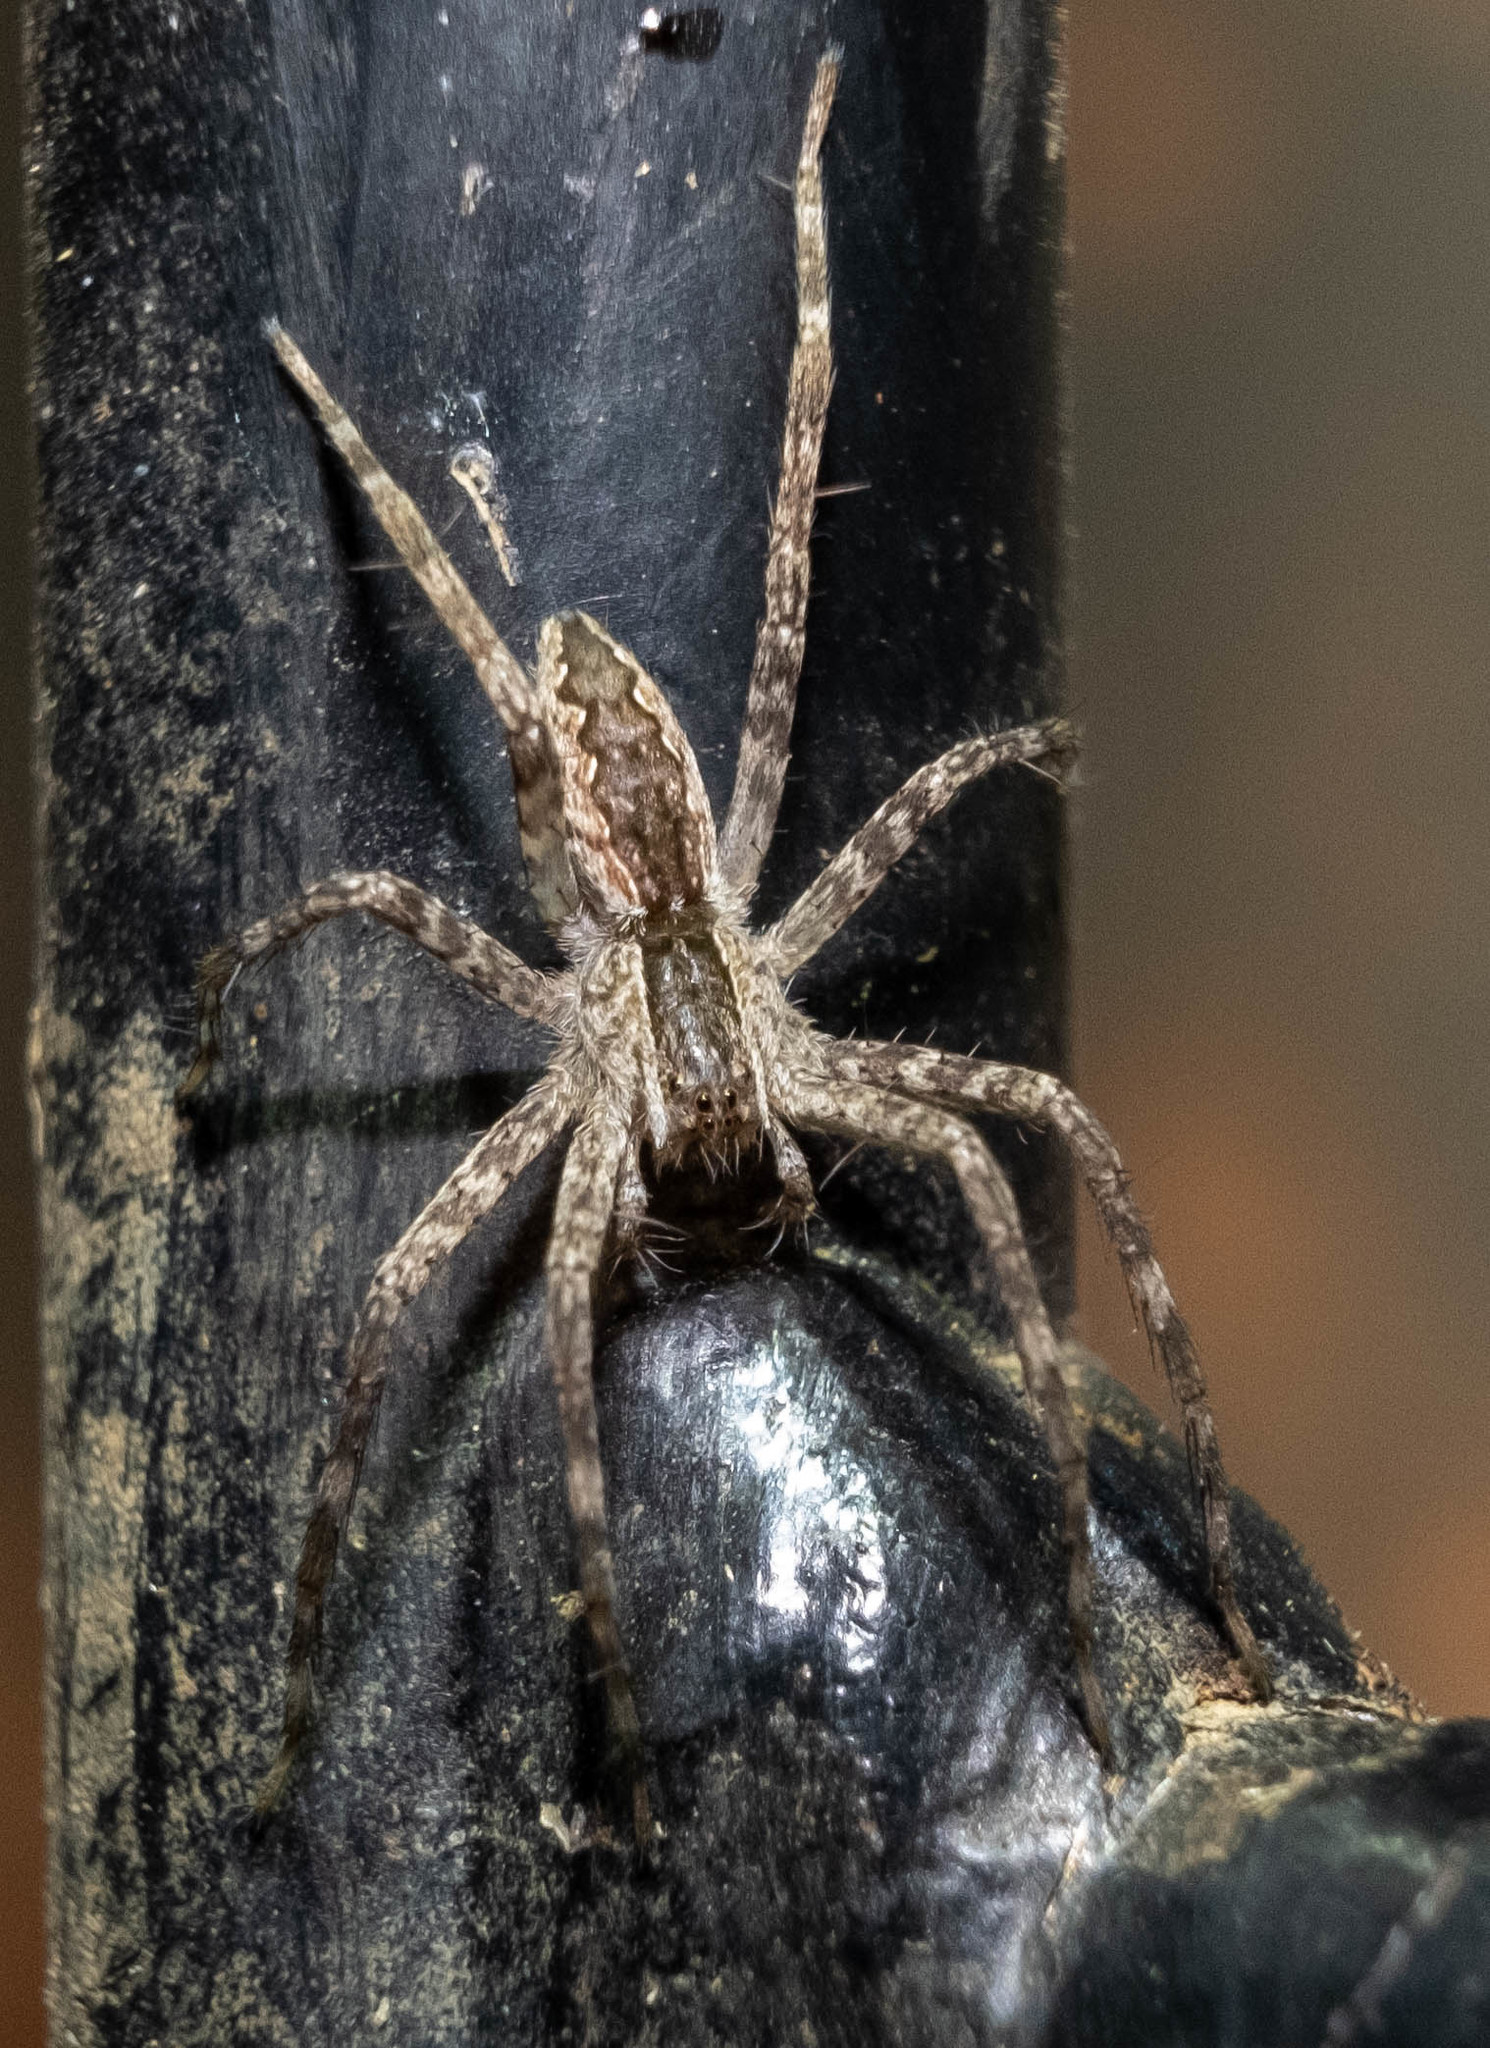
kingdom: Animalia
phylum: Arthropoda
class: Arachnida
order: Araneae
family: Pisauridae
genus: Pisaurina
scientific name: Pisaurina mira
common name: American nursery web spider
